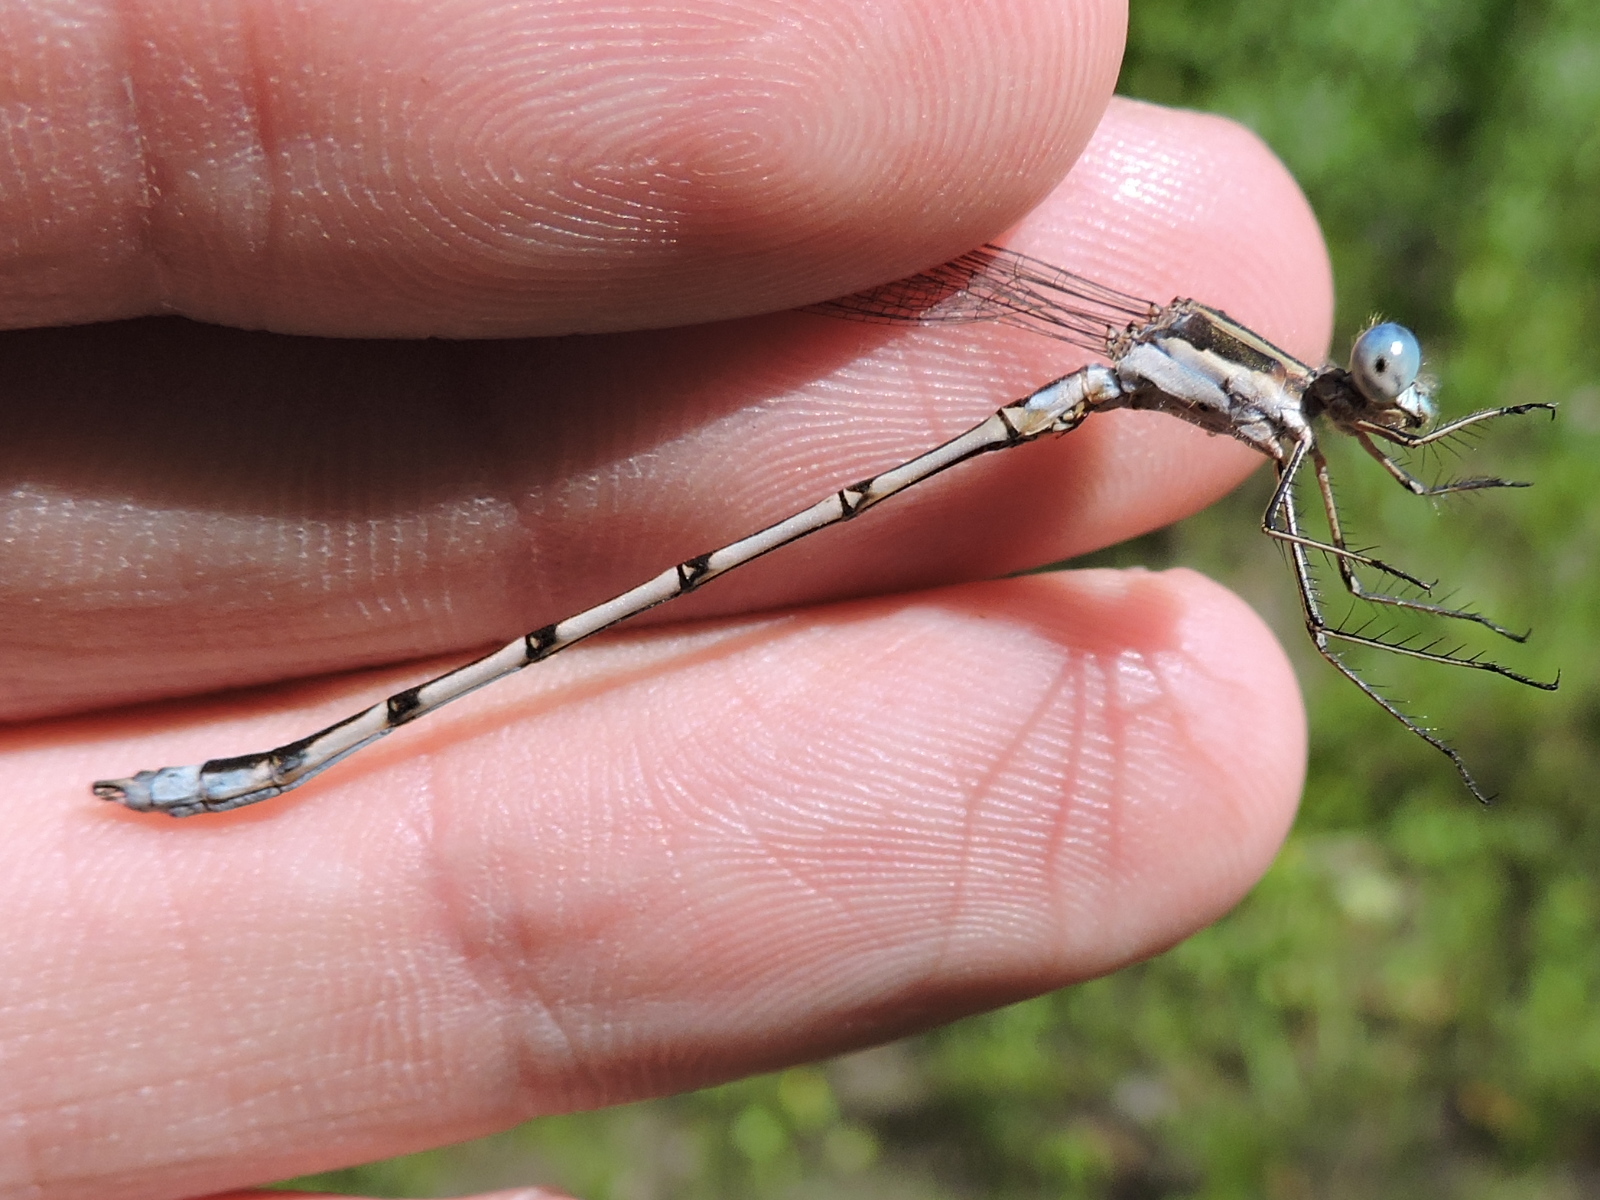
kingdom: Animalia
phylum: Arthropoda
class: Insecta
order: Odonata
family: Lestidae
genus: Lestes
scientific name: Lestes australis
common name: Southern spreadwing
